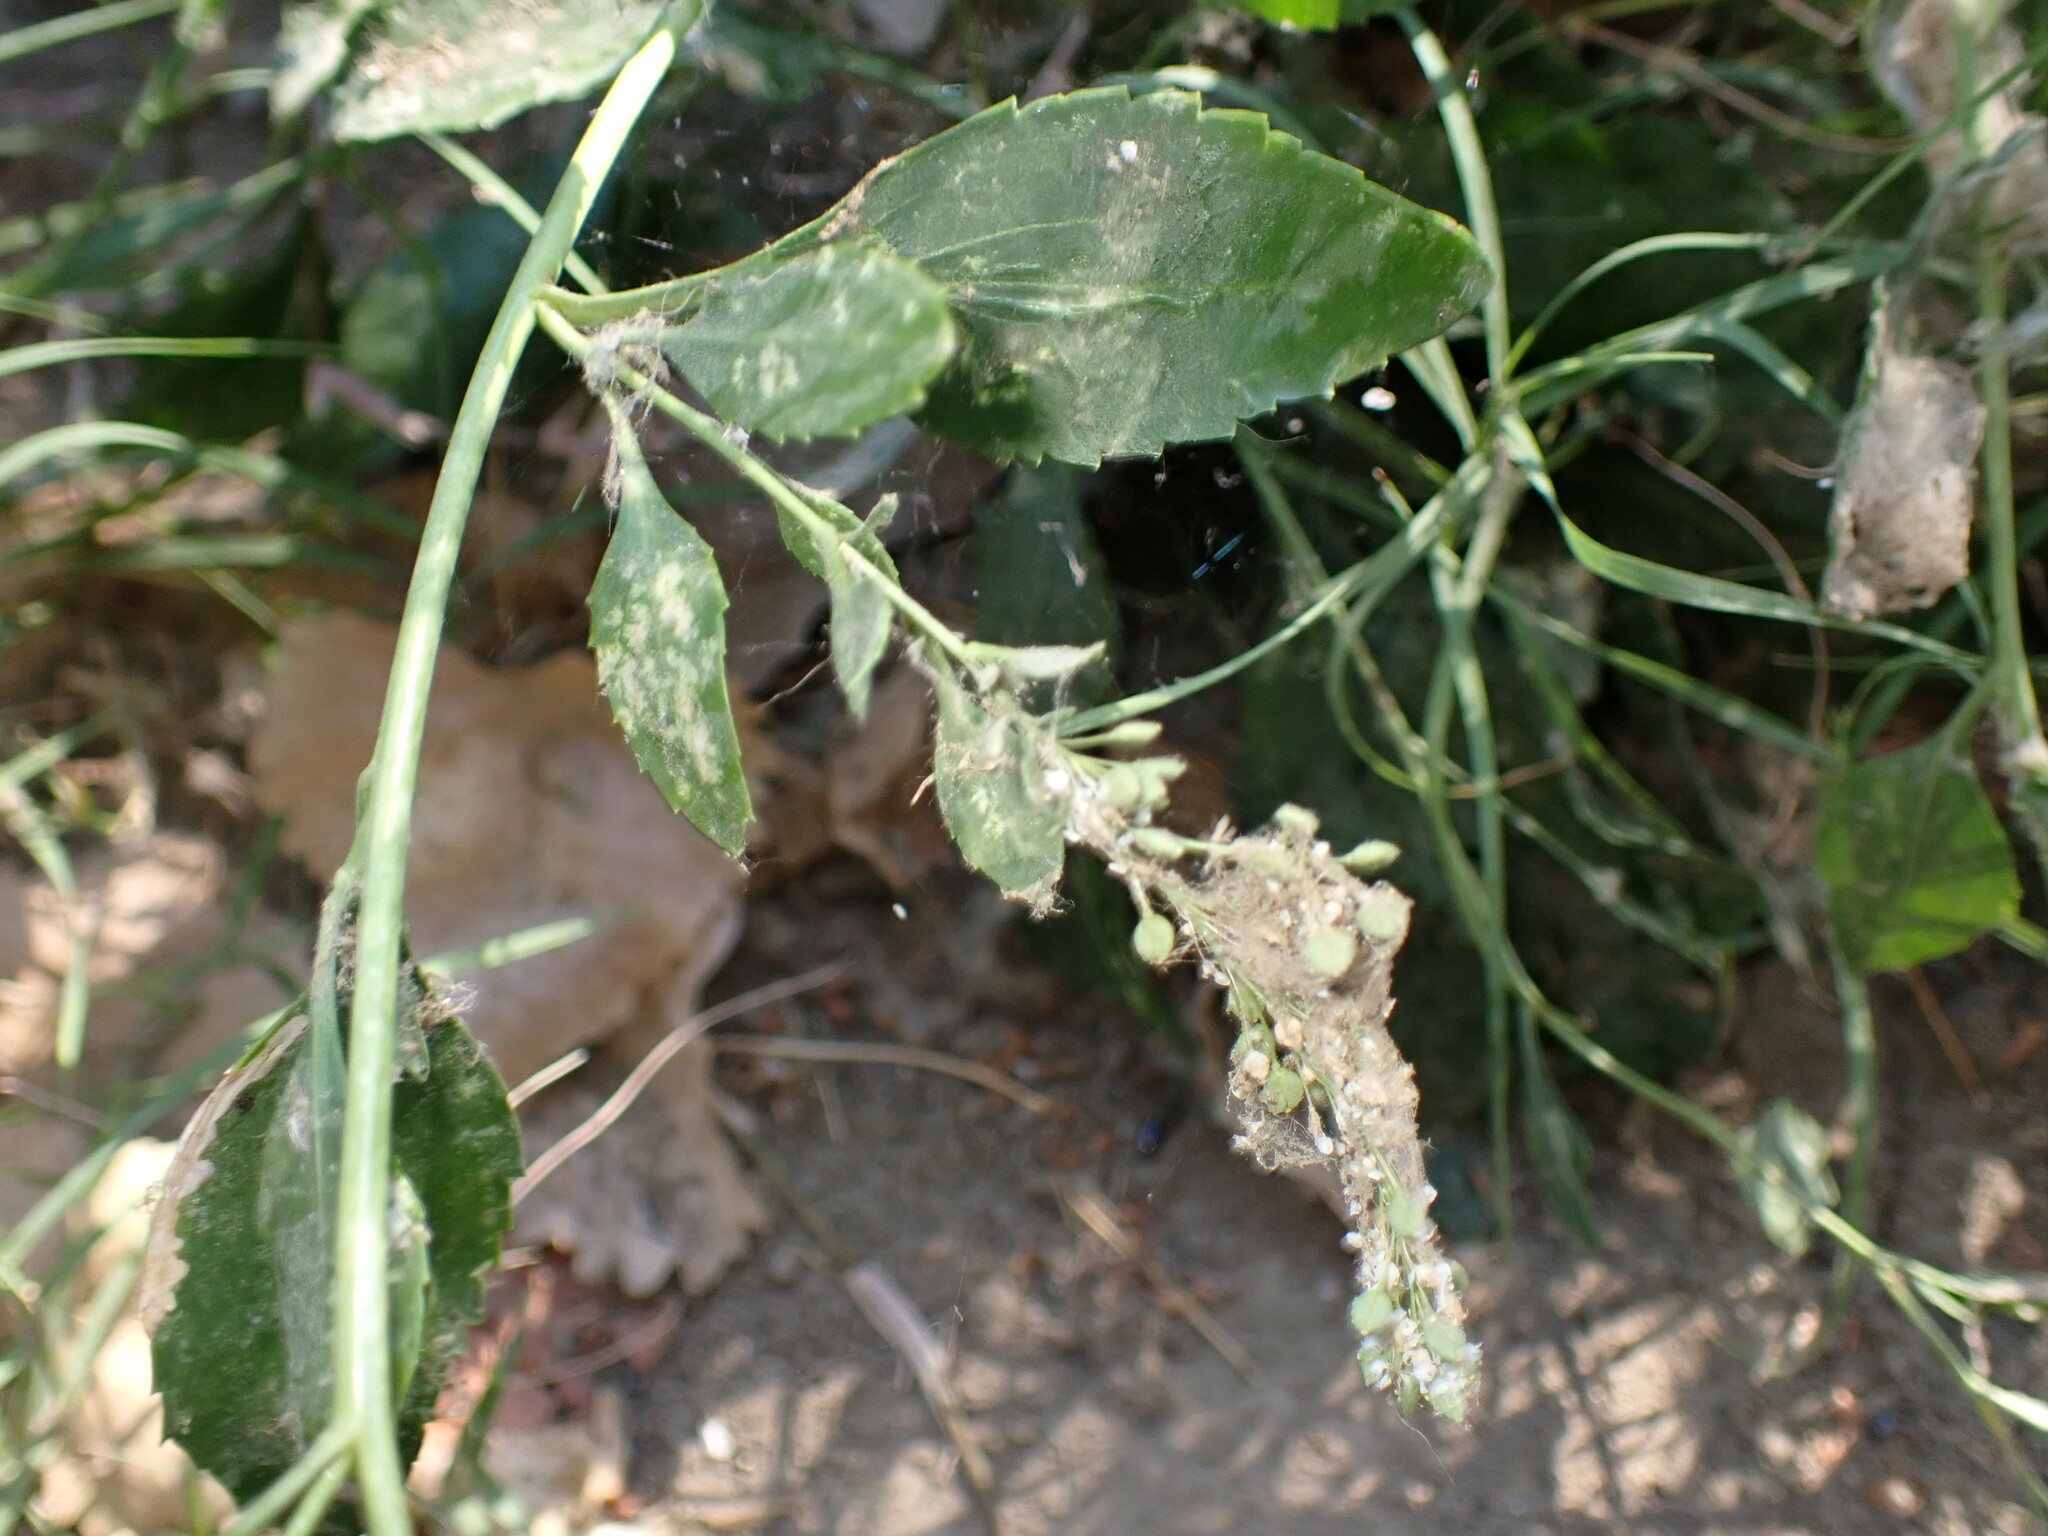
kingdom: Plantae
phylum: Tracheophyta
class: Magnoliopsida
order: Brassicales
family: Brassicaceae
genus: Lepidium
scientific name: Lepidium latifolium
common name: Dittander
